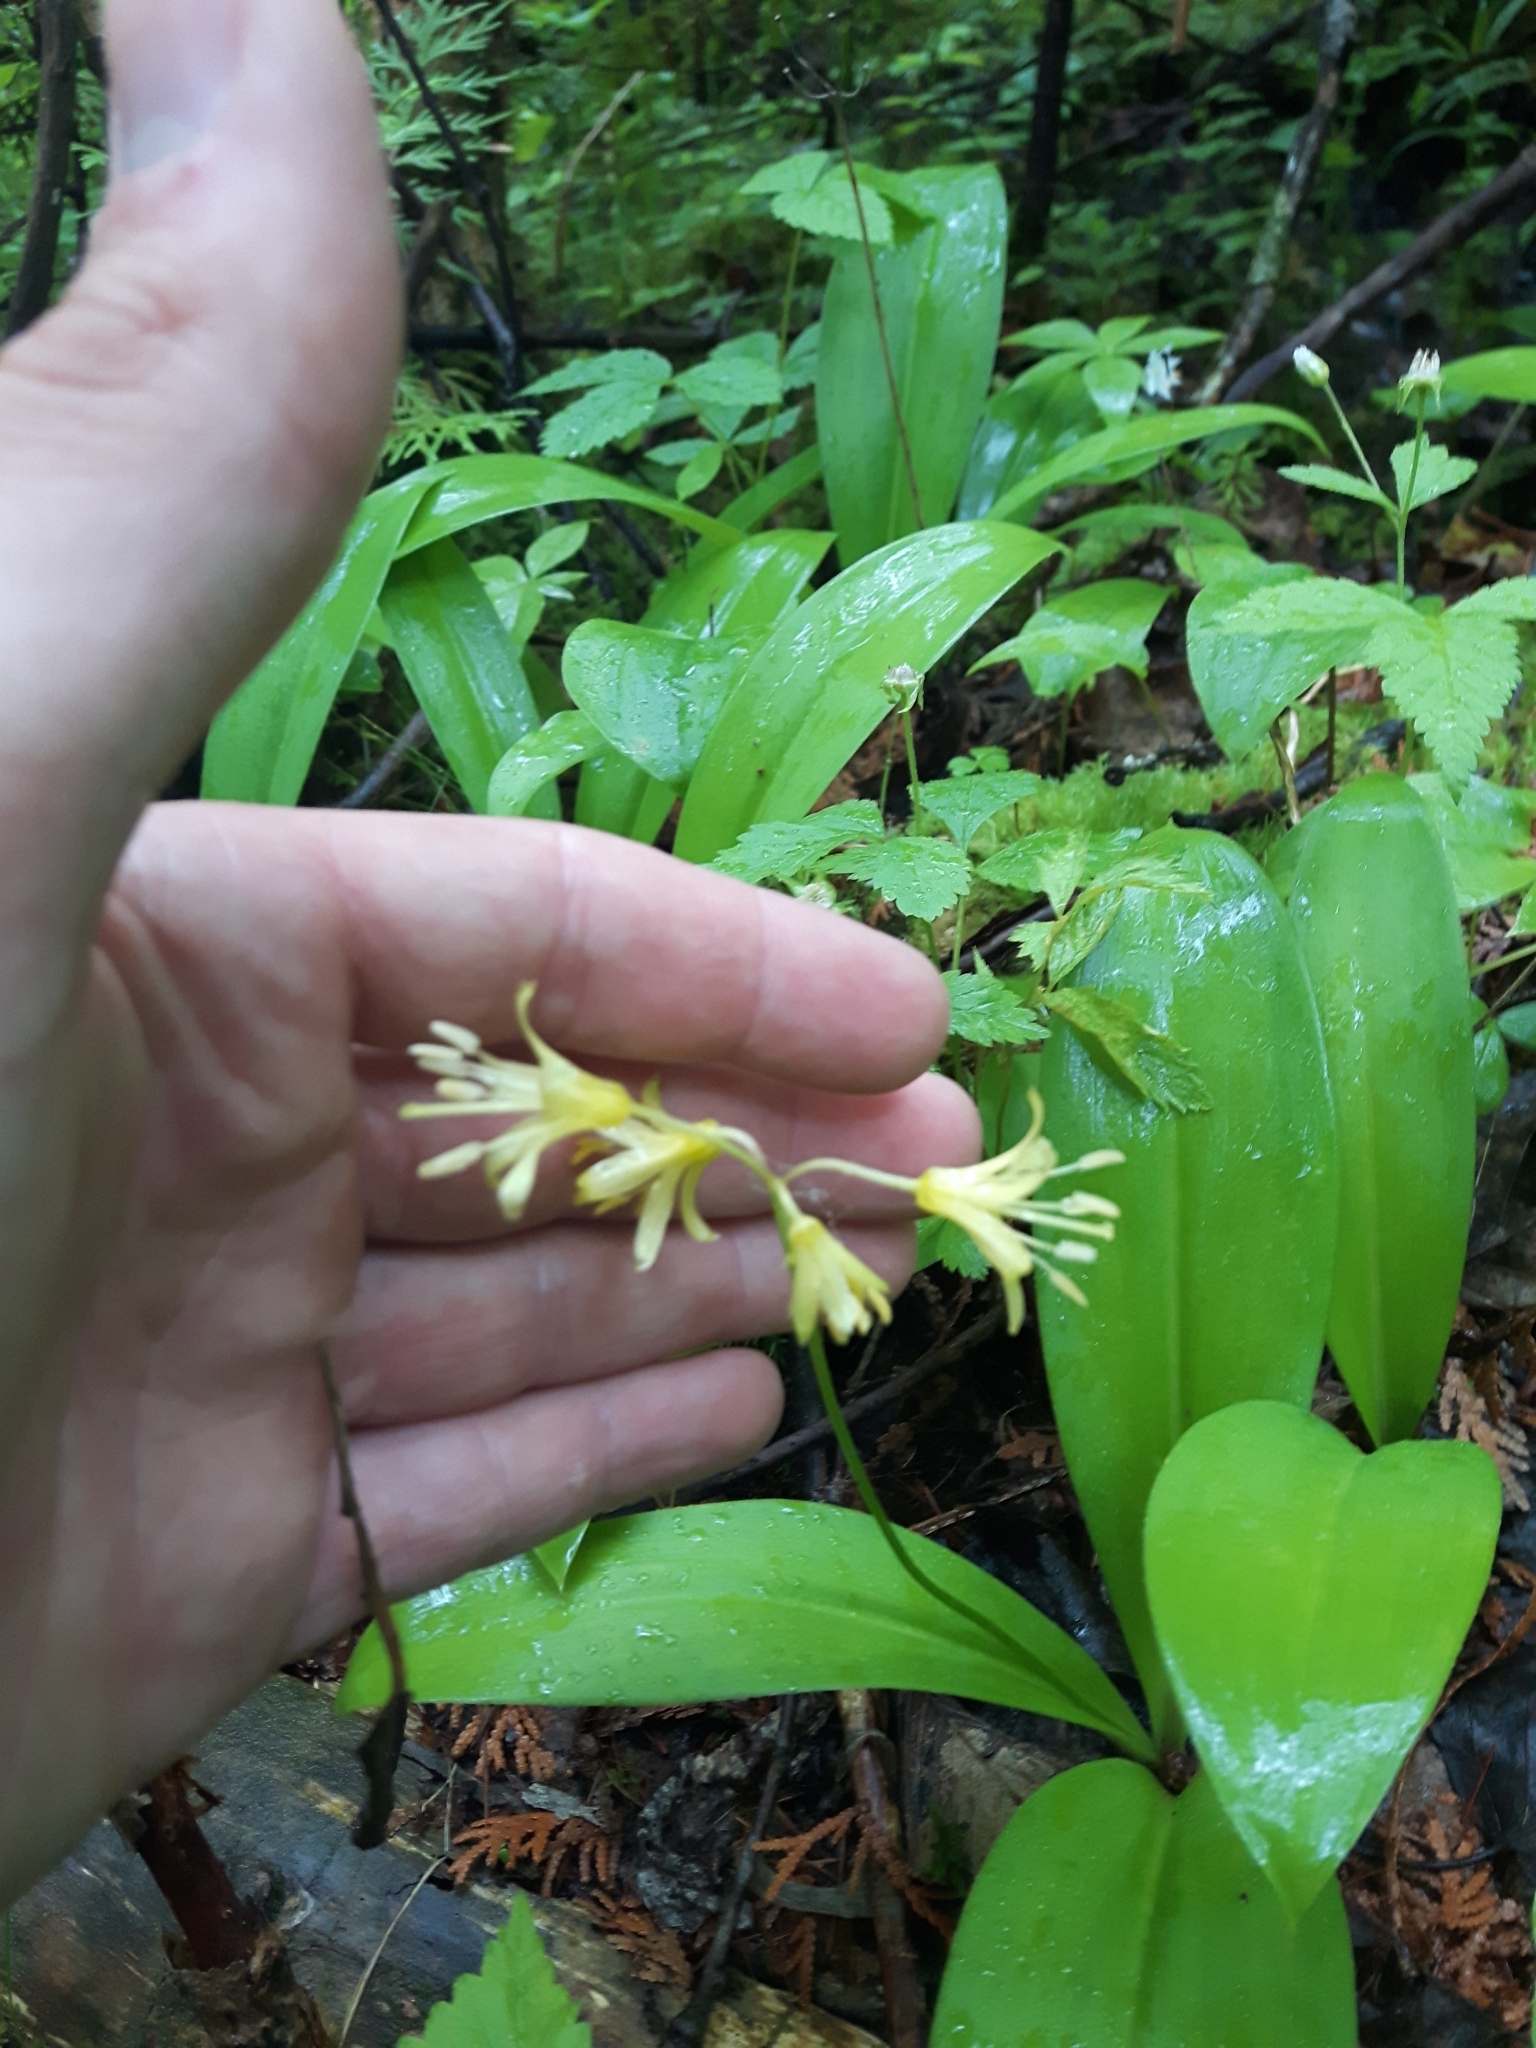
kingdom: Plantae
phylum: Tracheophyta
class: Liliopsida
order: Liliales
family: Liliaceae
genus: Clintonia
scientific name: Clintonia borealis
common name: Yellow clintonia
